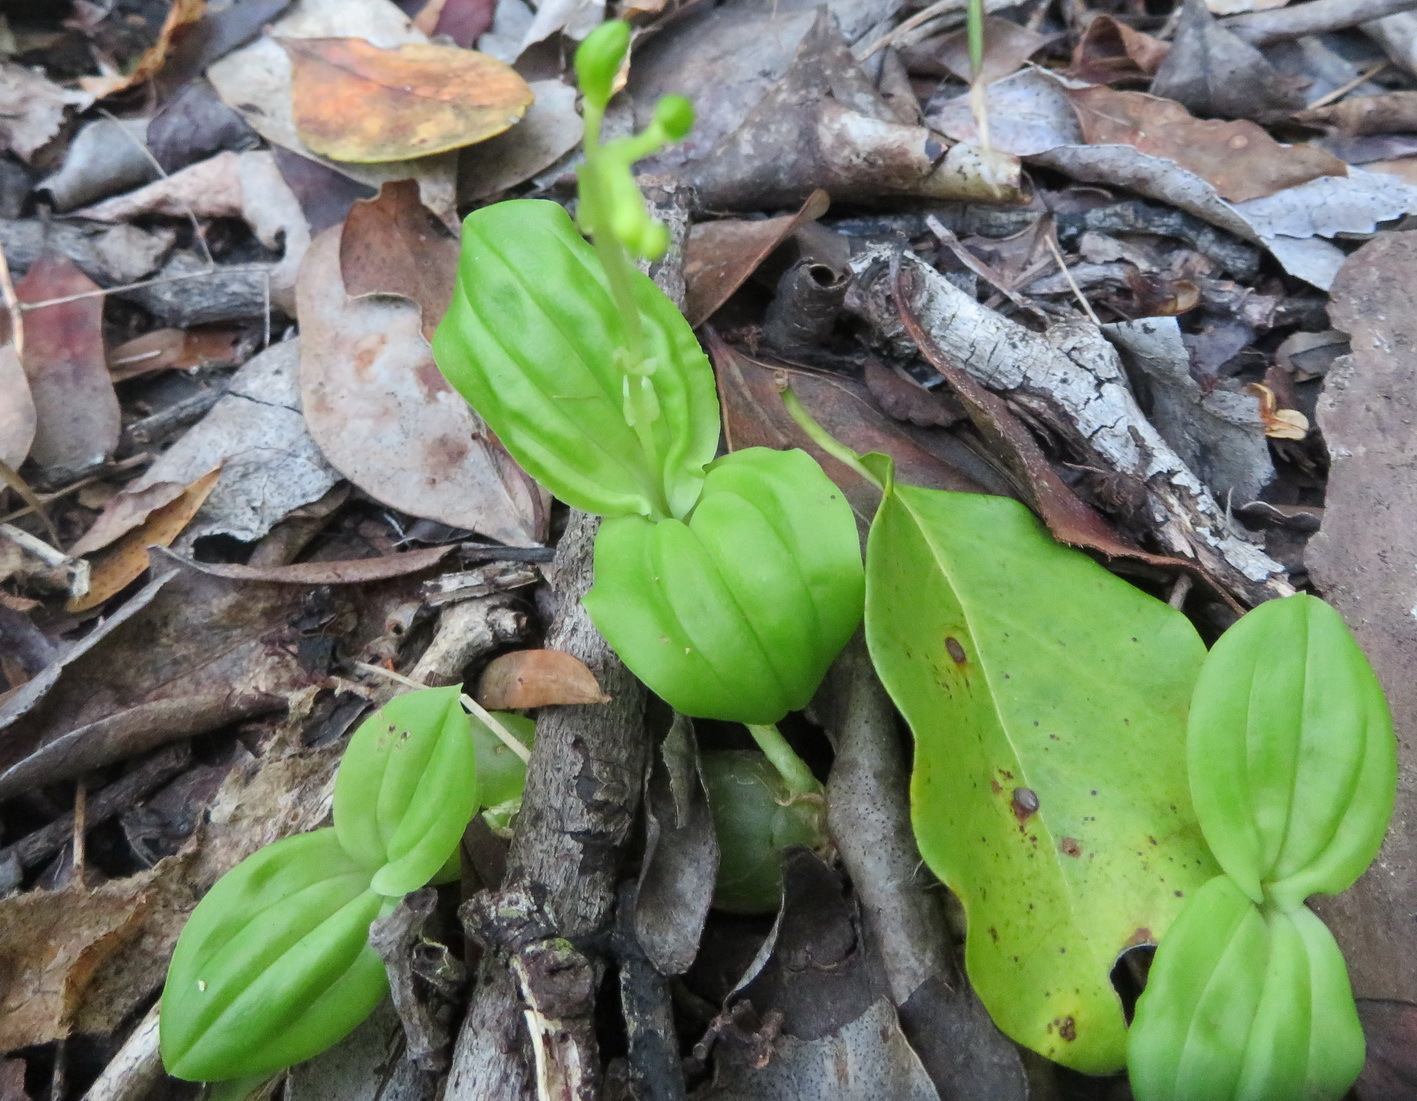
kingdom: Plantae
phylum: Tracheophyta
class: Liliopsida
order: Asparagales
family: Orchidaceae
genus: Liparis
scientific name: Liparis remota
